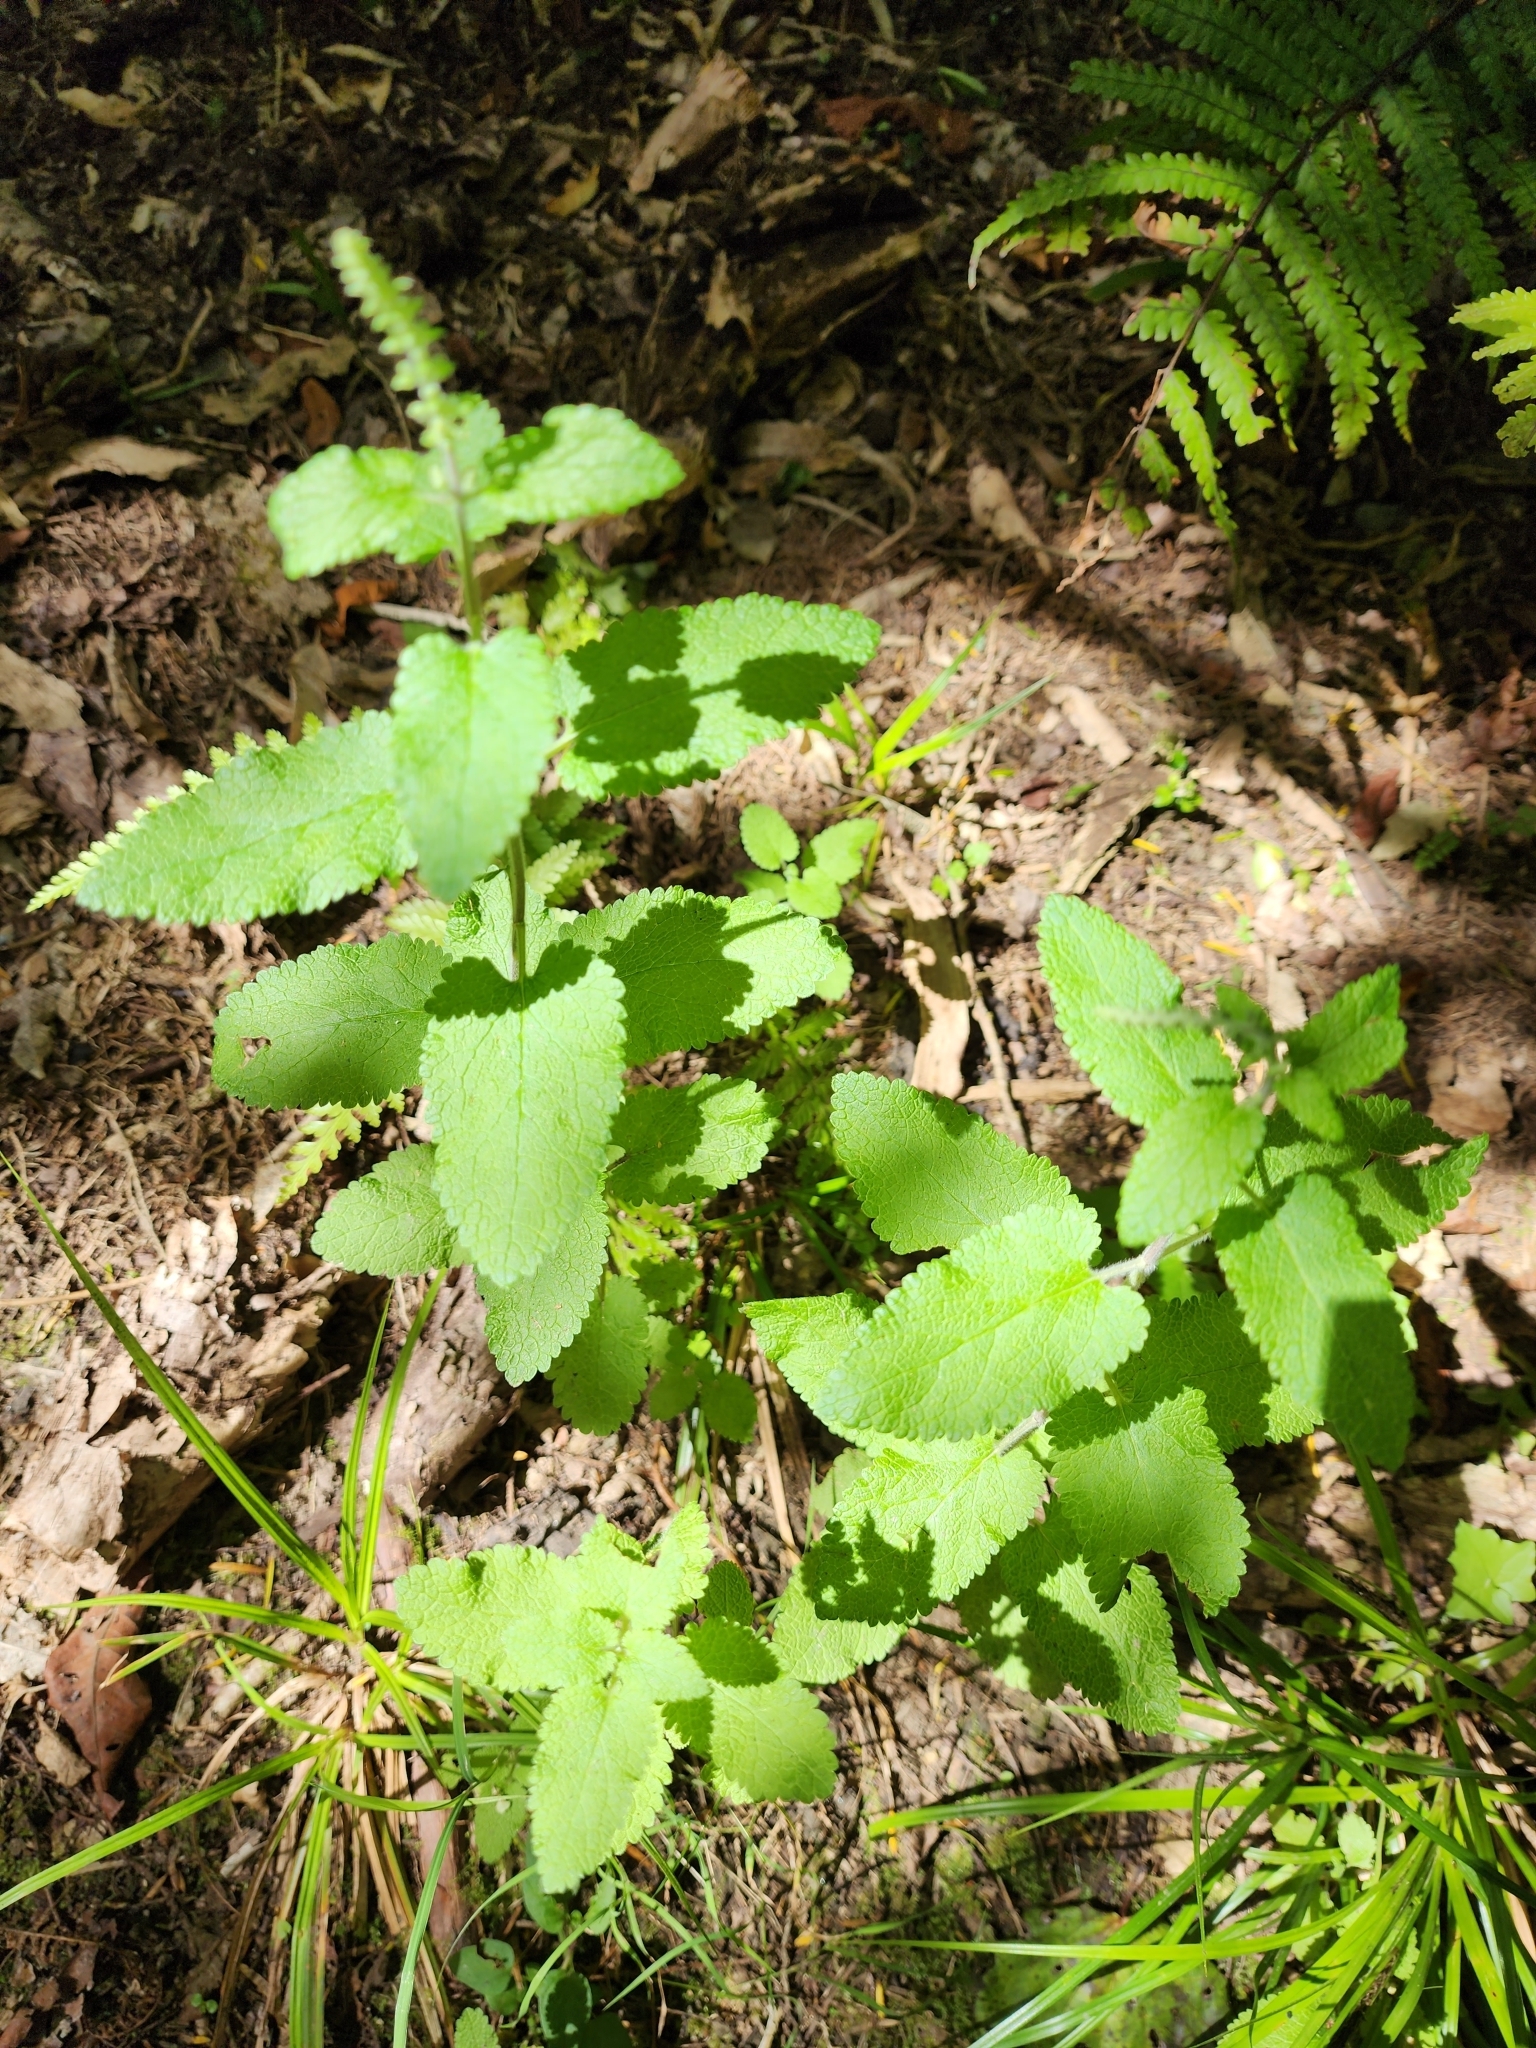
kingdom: Plantae
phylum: Tracheophyta
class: Magnoliopsida
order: Lamiales
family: Lamiaceae
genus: Teucrium
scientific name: Teucrium scorodonia
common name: Woodland germander
